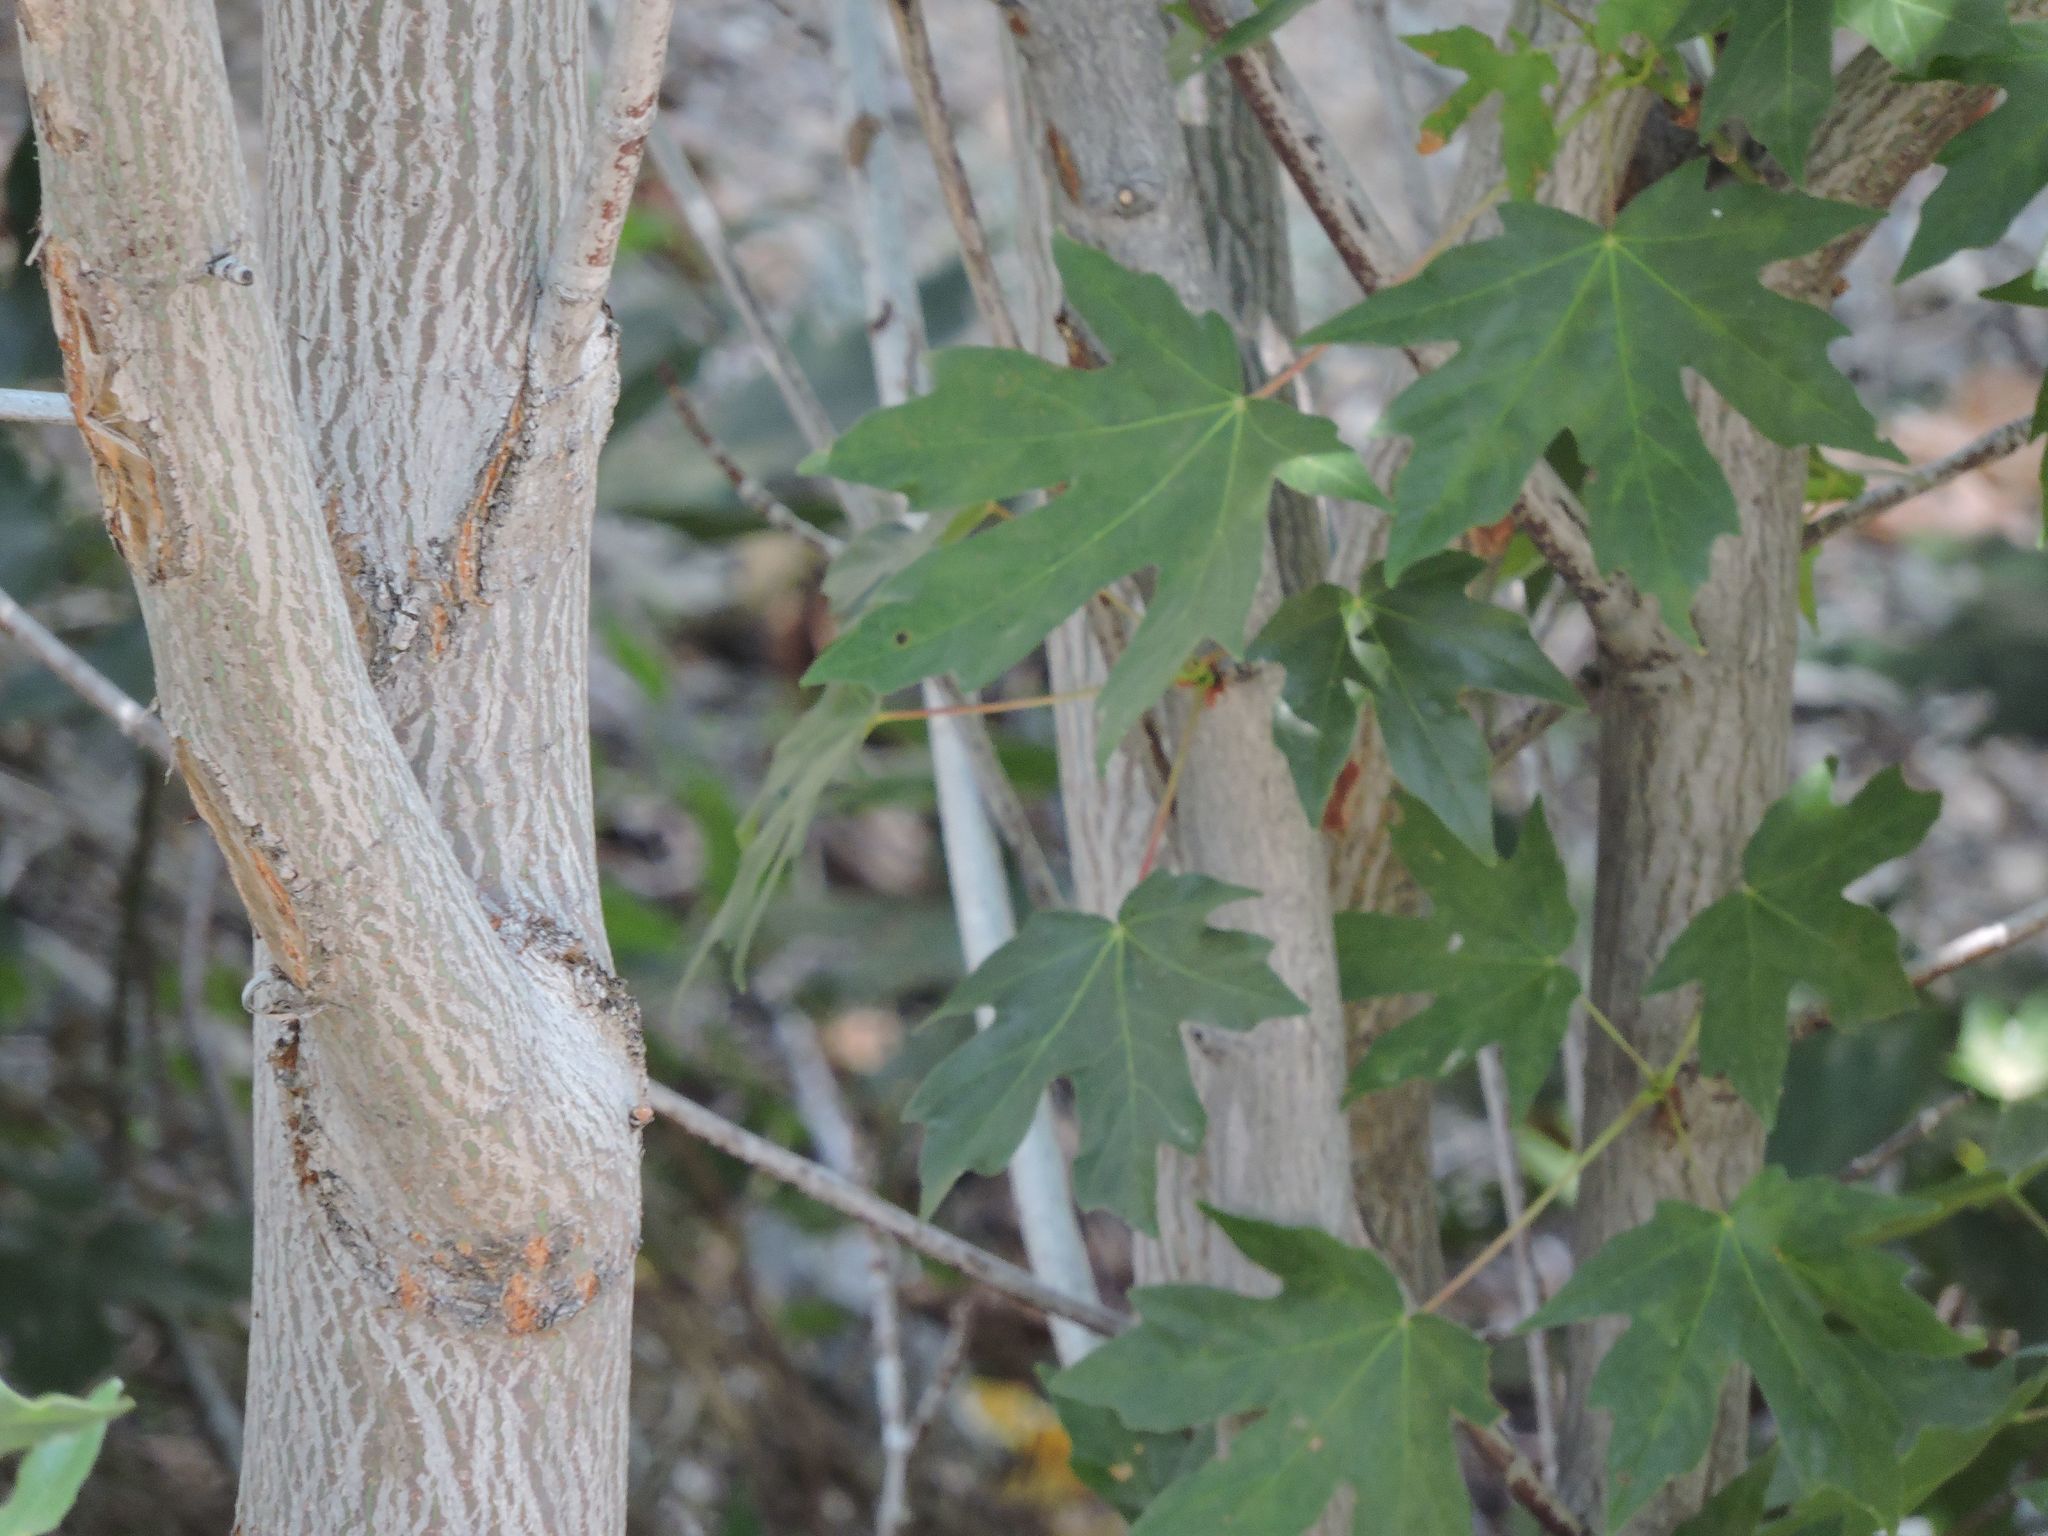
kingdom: Plantae
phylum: Tracheophyta
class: Magnoliopsida
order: Sapindales
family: Sapindaceae
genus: Acer
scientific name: Acer macrophyllum
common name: Oregon maple
